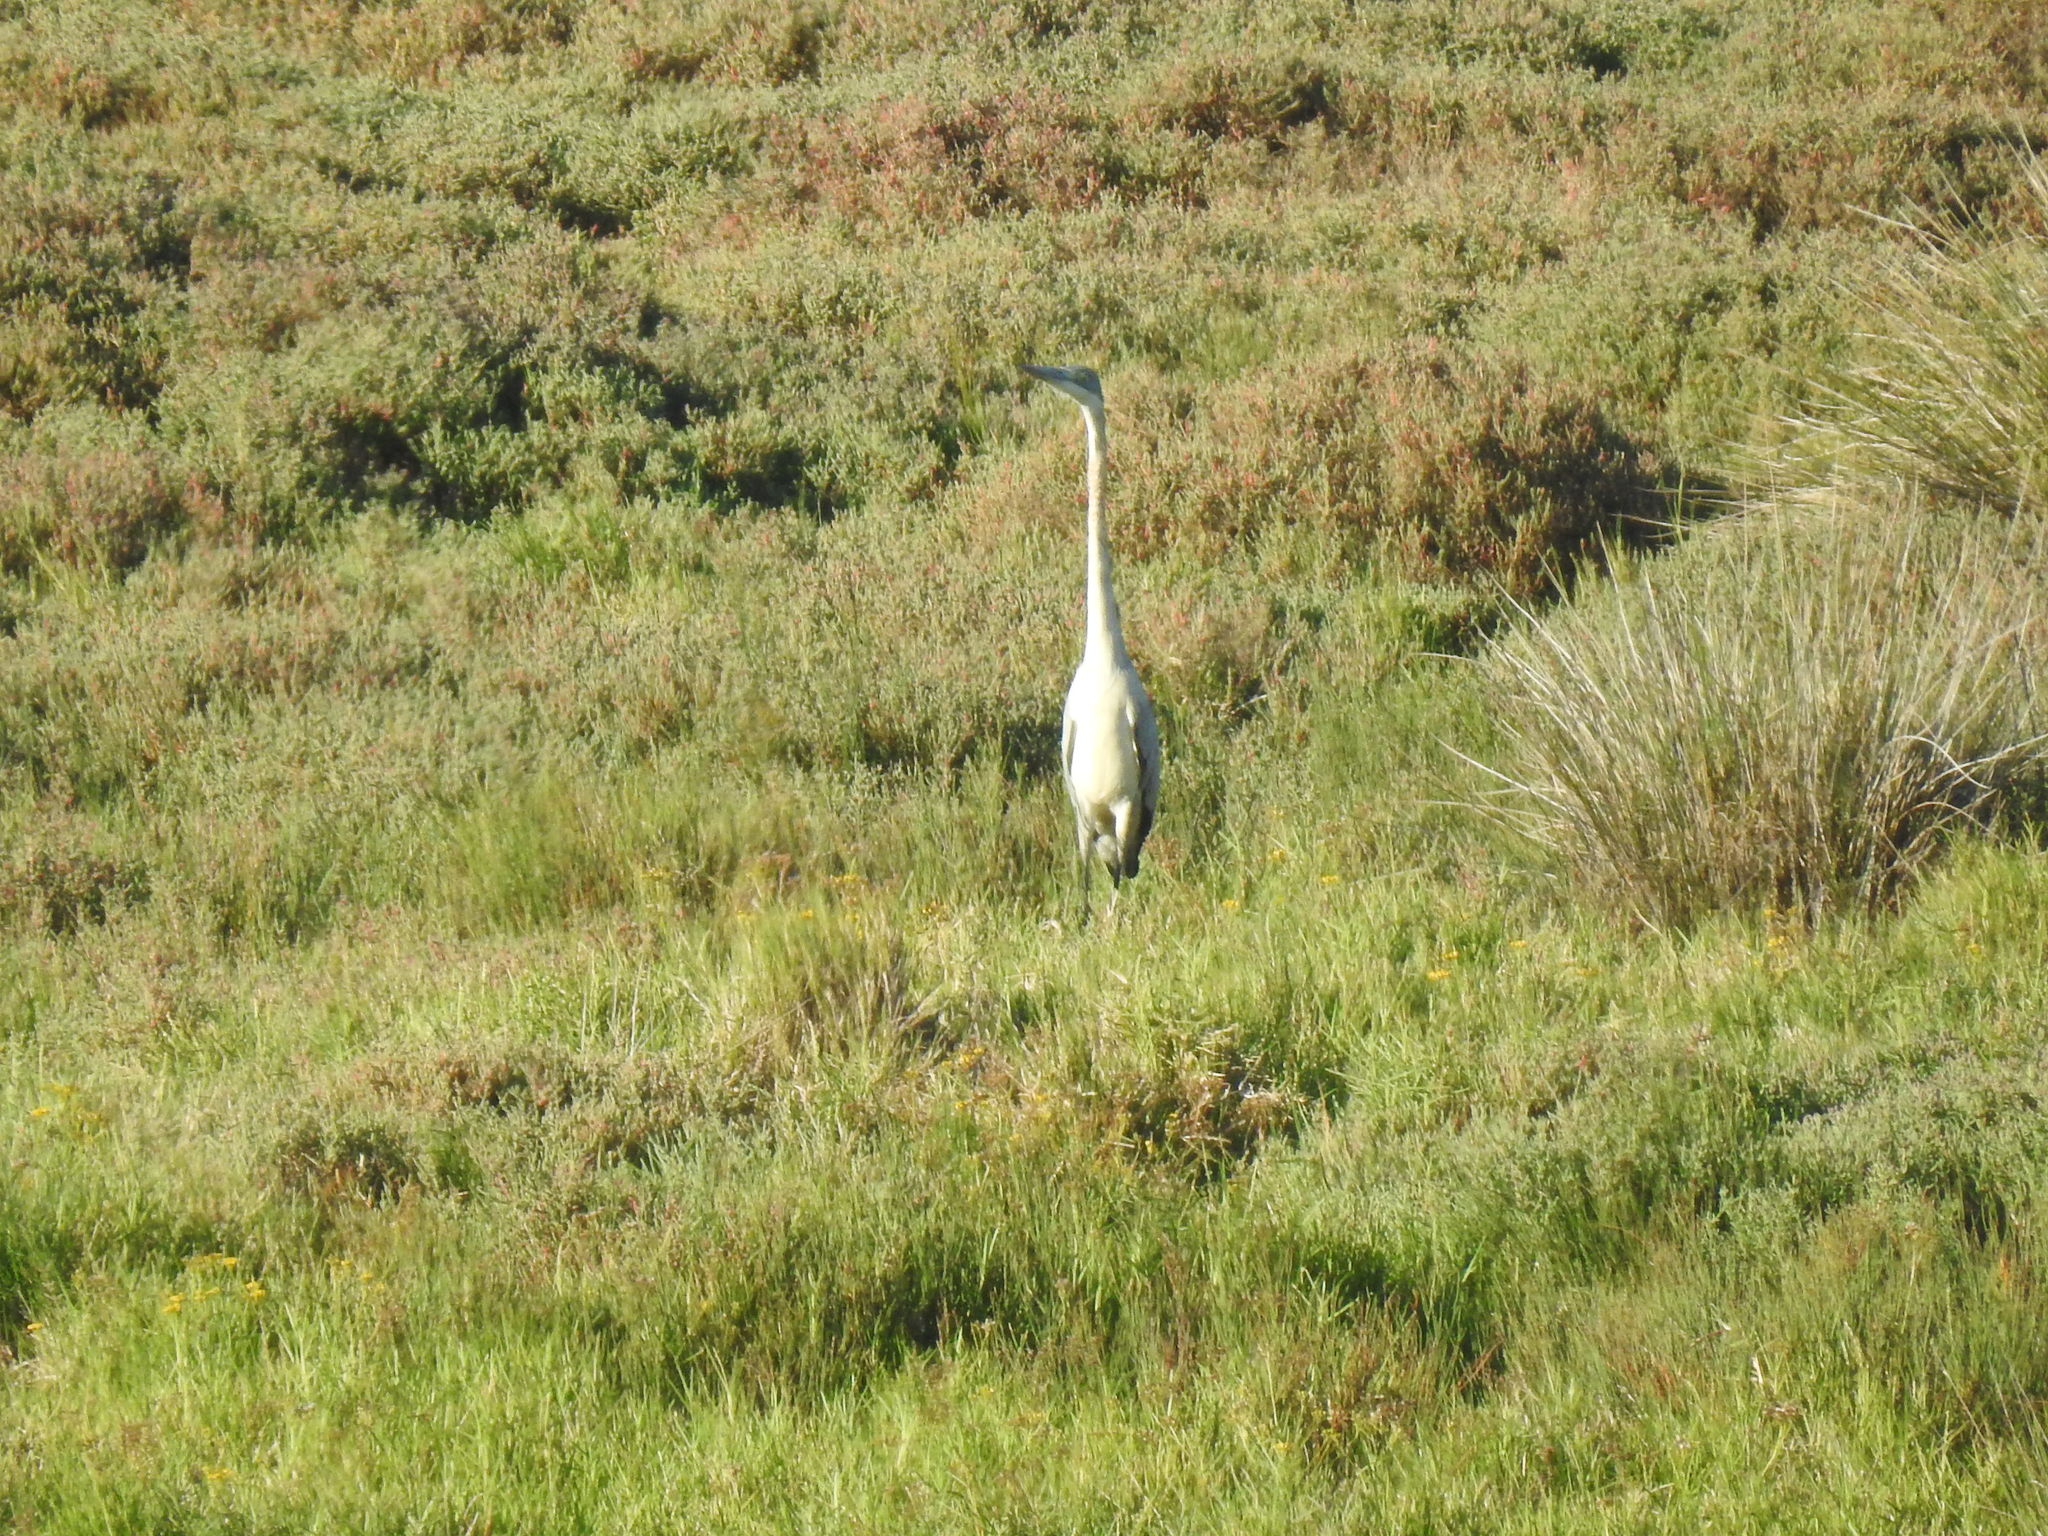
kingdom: Animalia
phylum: Chordata
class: Aves
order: Pelecaniformes
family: Ardeidae
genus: Ardea
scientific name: Ardea melanocephala
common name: Black-headed heron
